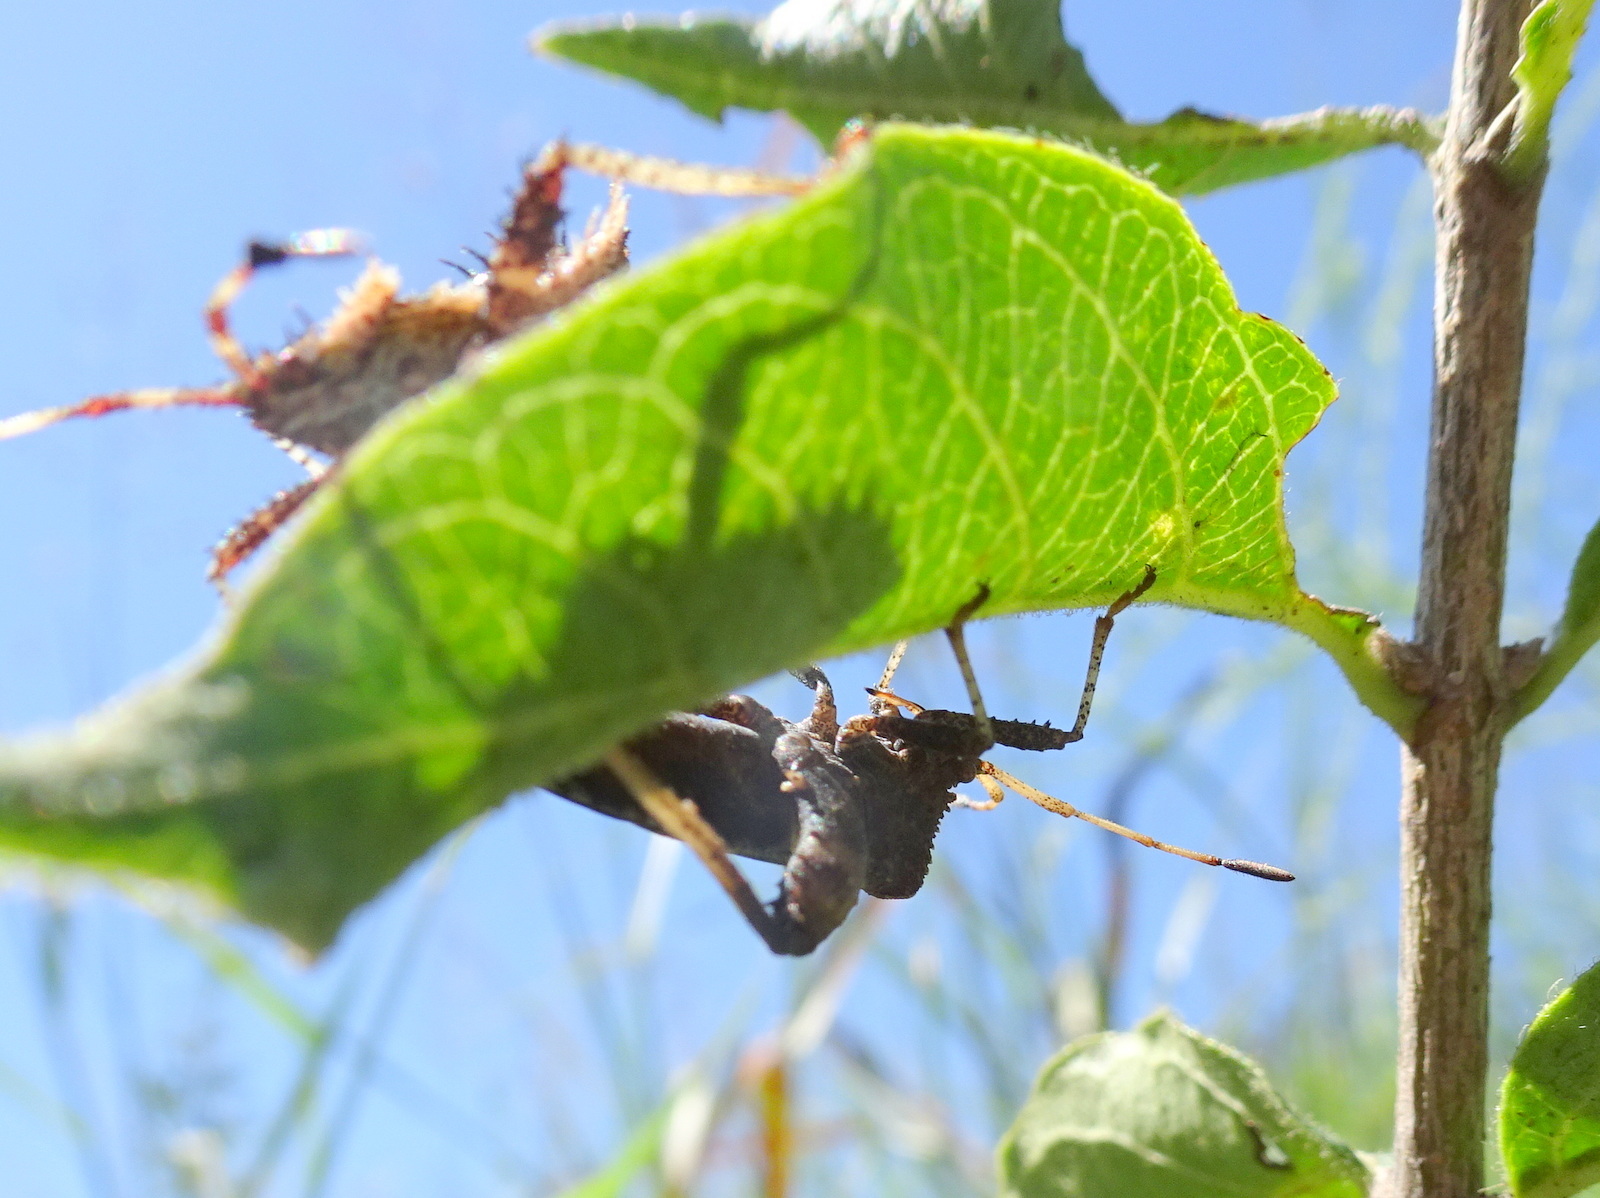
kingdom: Animalia
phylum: Arthropoda
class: Insecta
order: Hemiptera
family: Coreidae
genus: Euthochtha
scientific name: Euthochtha galeator
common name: Helmeted squash bug
